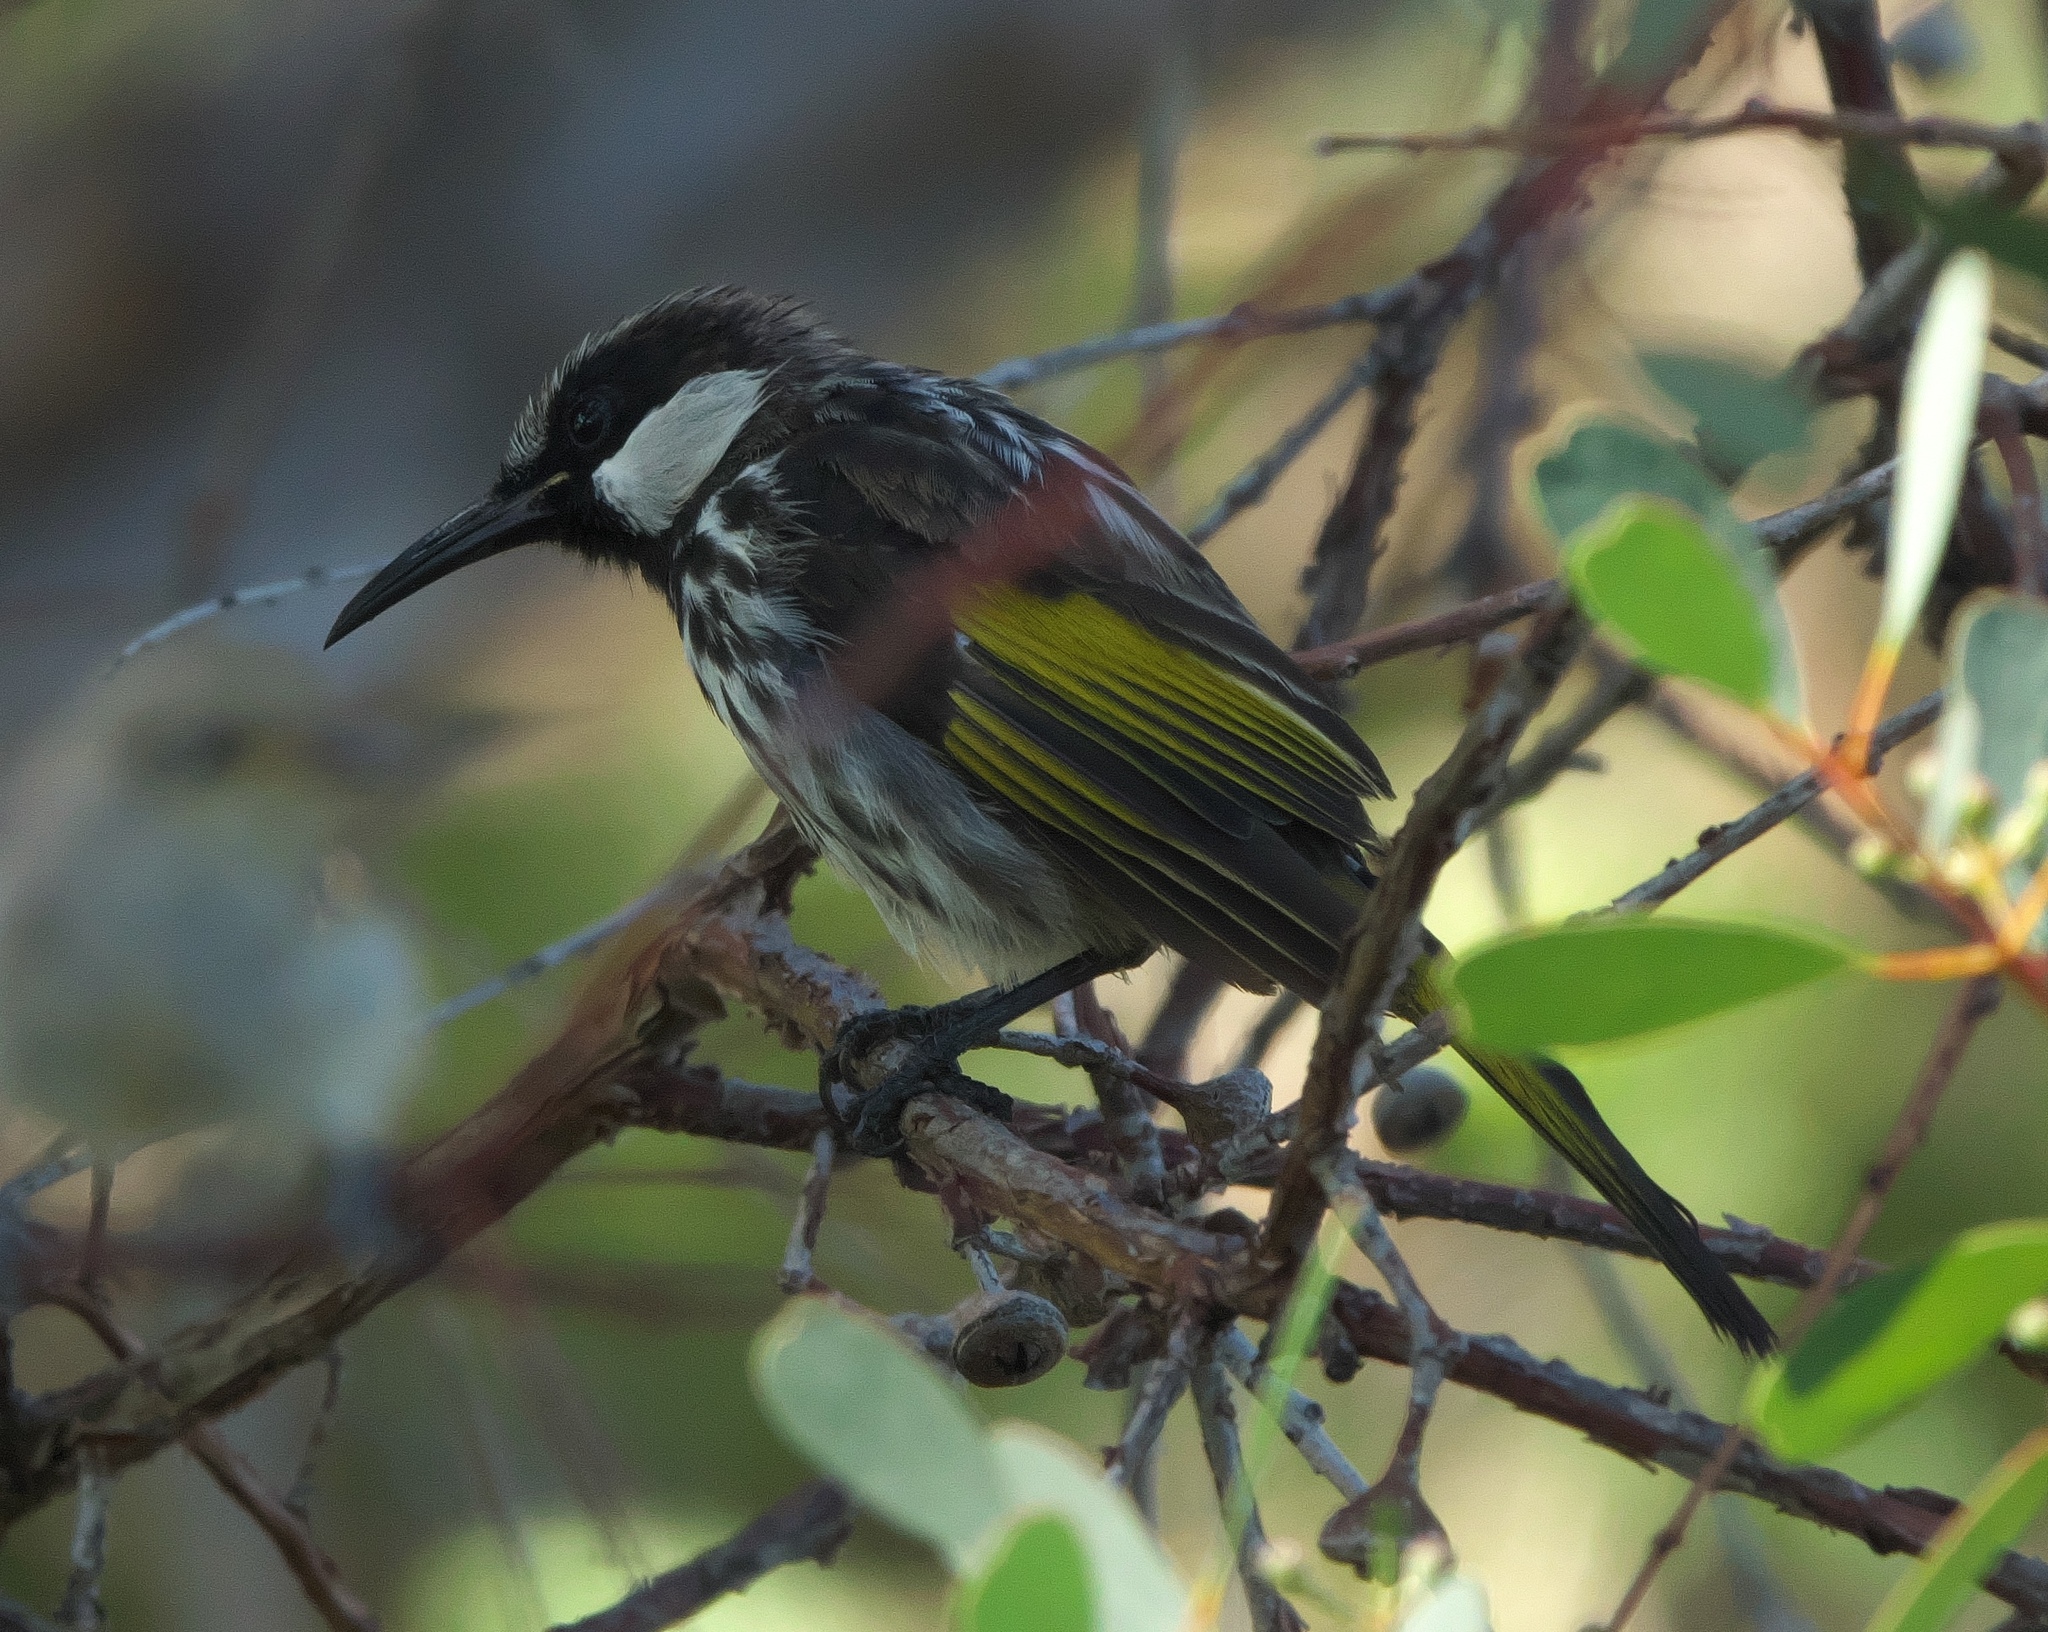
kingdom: Animalia
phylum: Chordata
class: Aves
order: Passeriformes
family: Meliphagidae
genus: Phylidonyris
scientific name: Phylidonyris niger
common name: White-cheeked honeyeater
